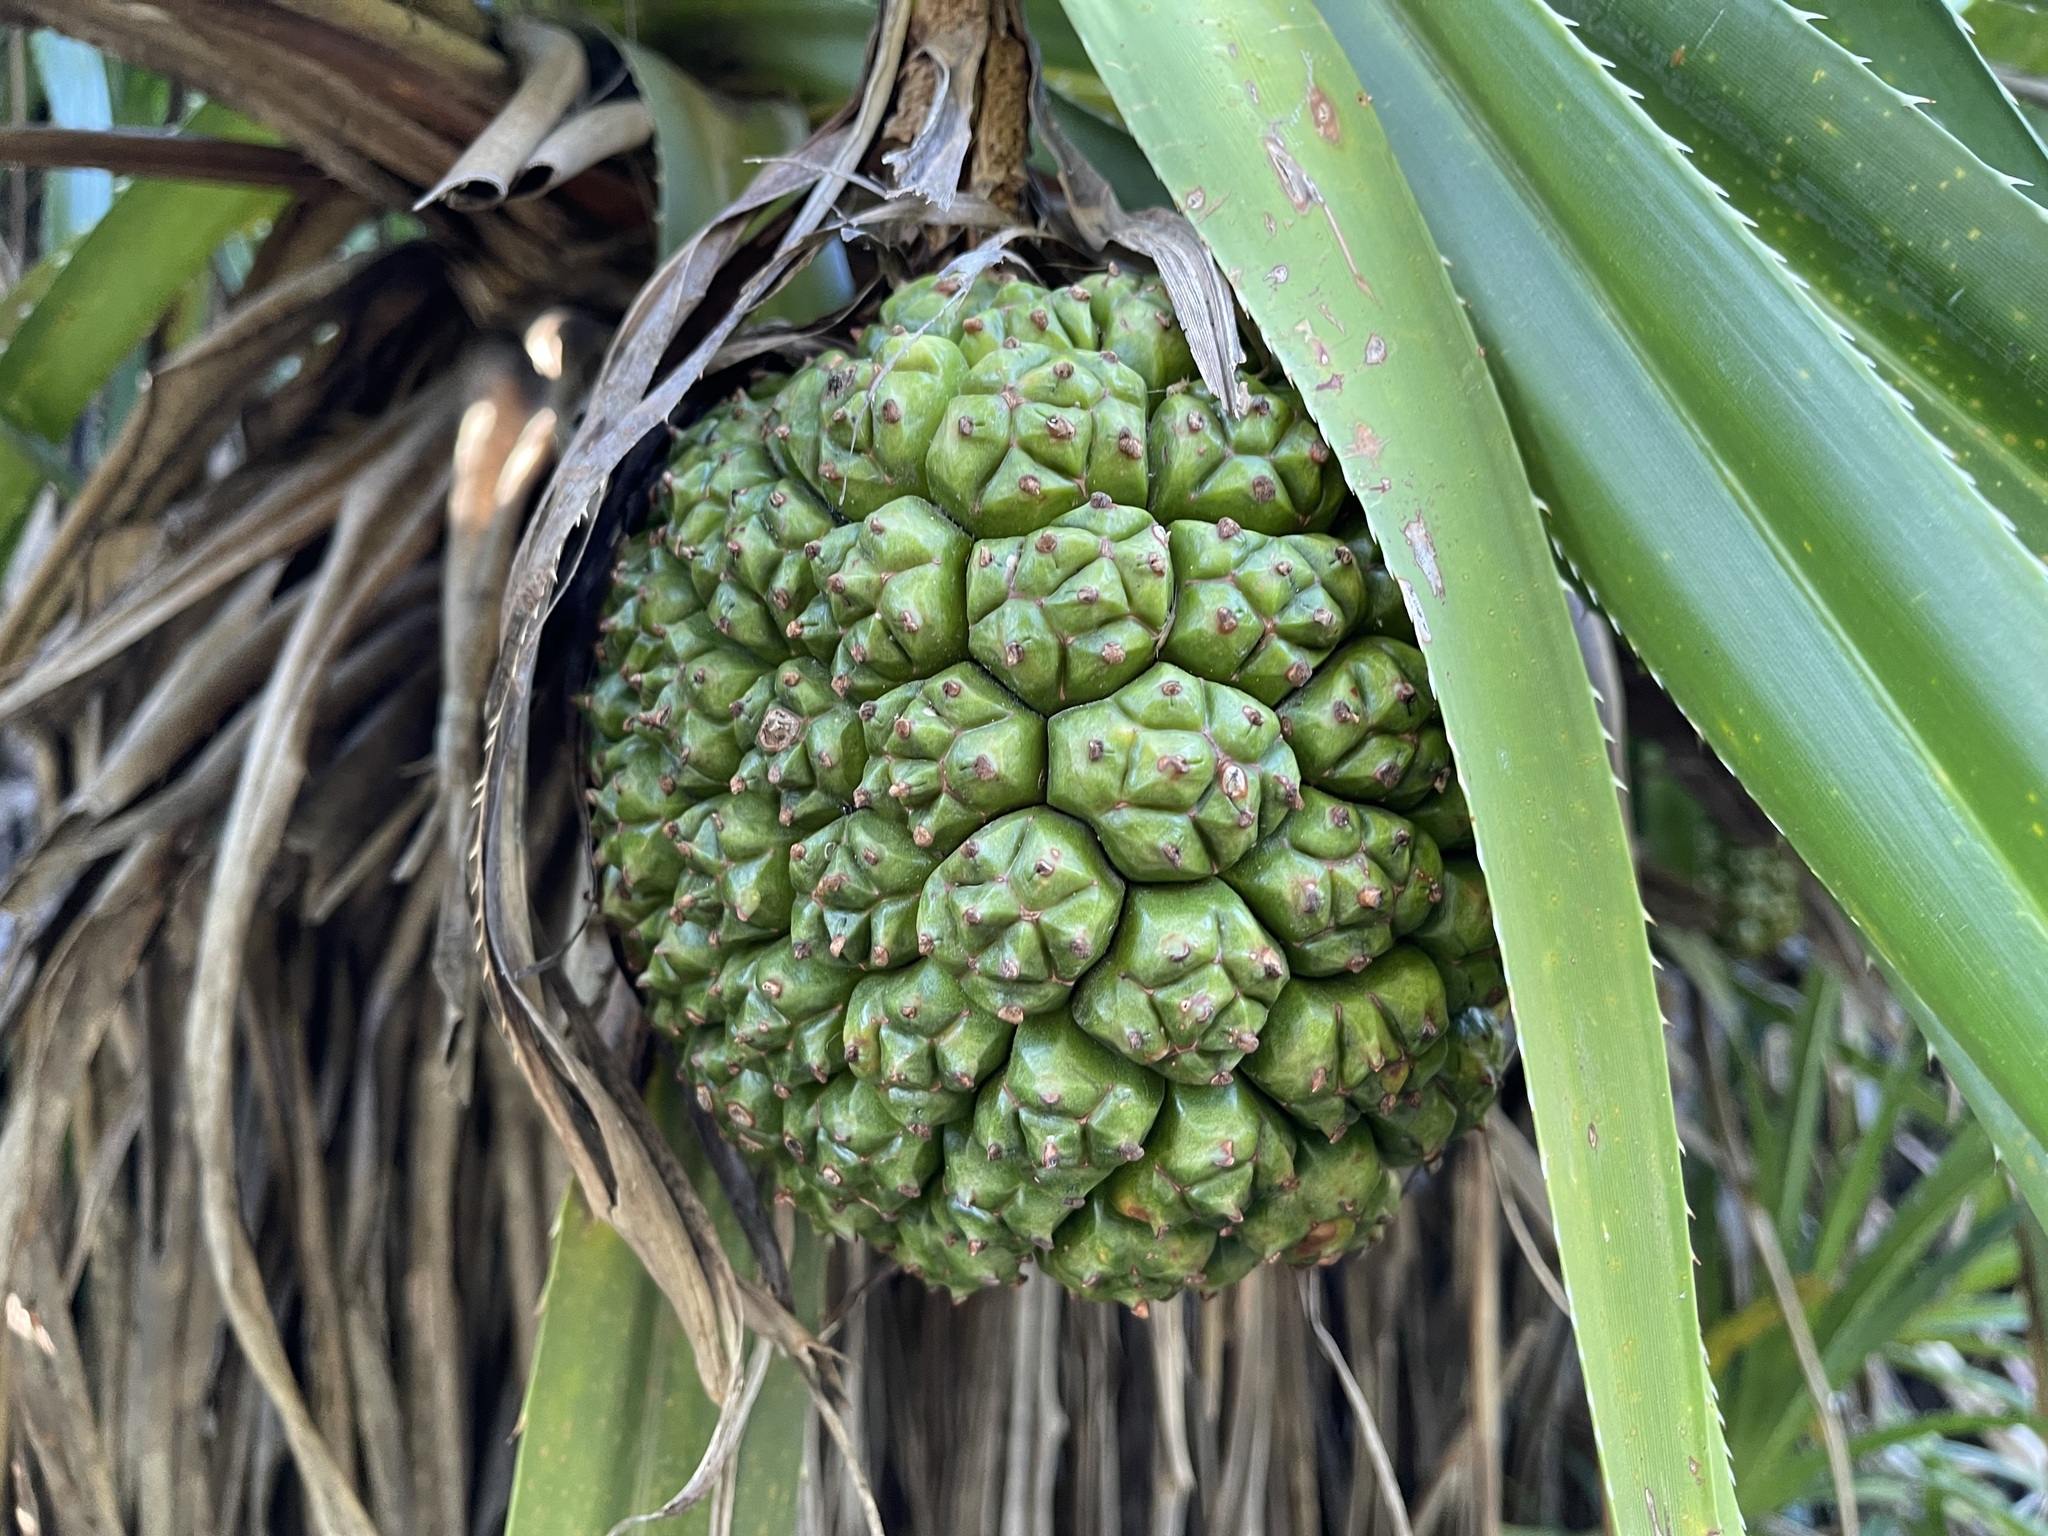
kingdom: Plantae
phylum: Tracheophyta
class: Liliopsida
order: Pandanales
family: Pandanaceae
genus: Pandanus
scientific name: Pandanus odorifer
